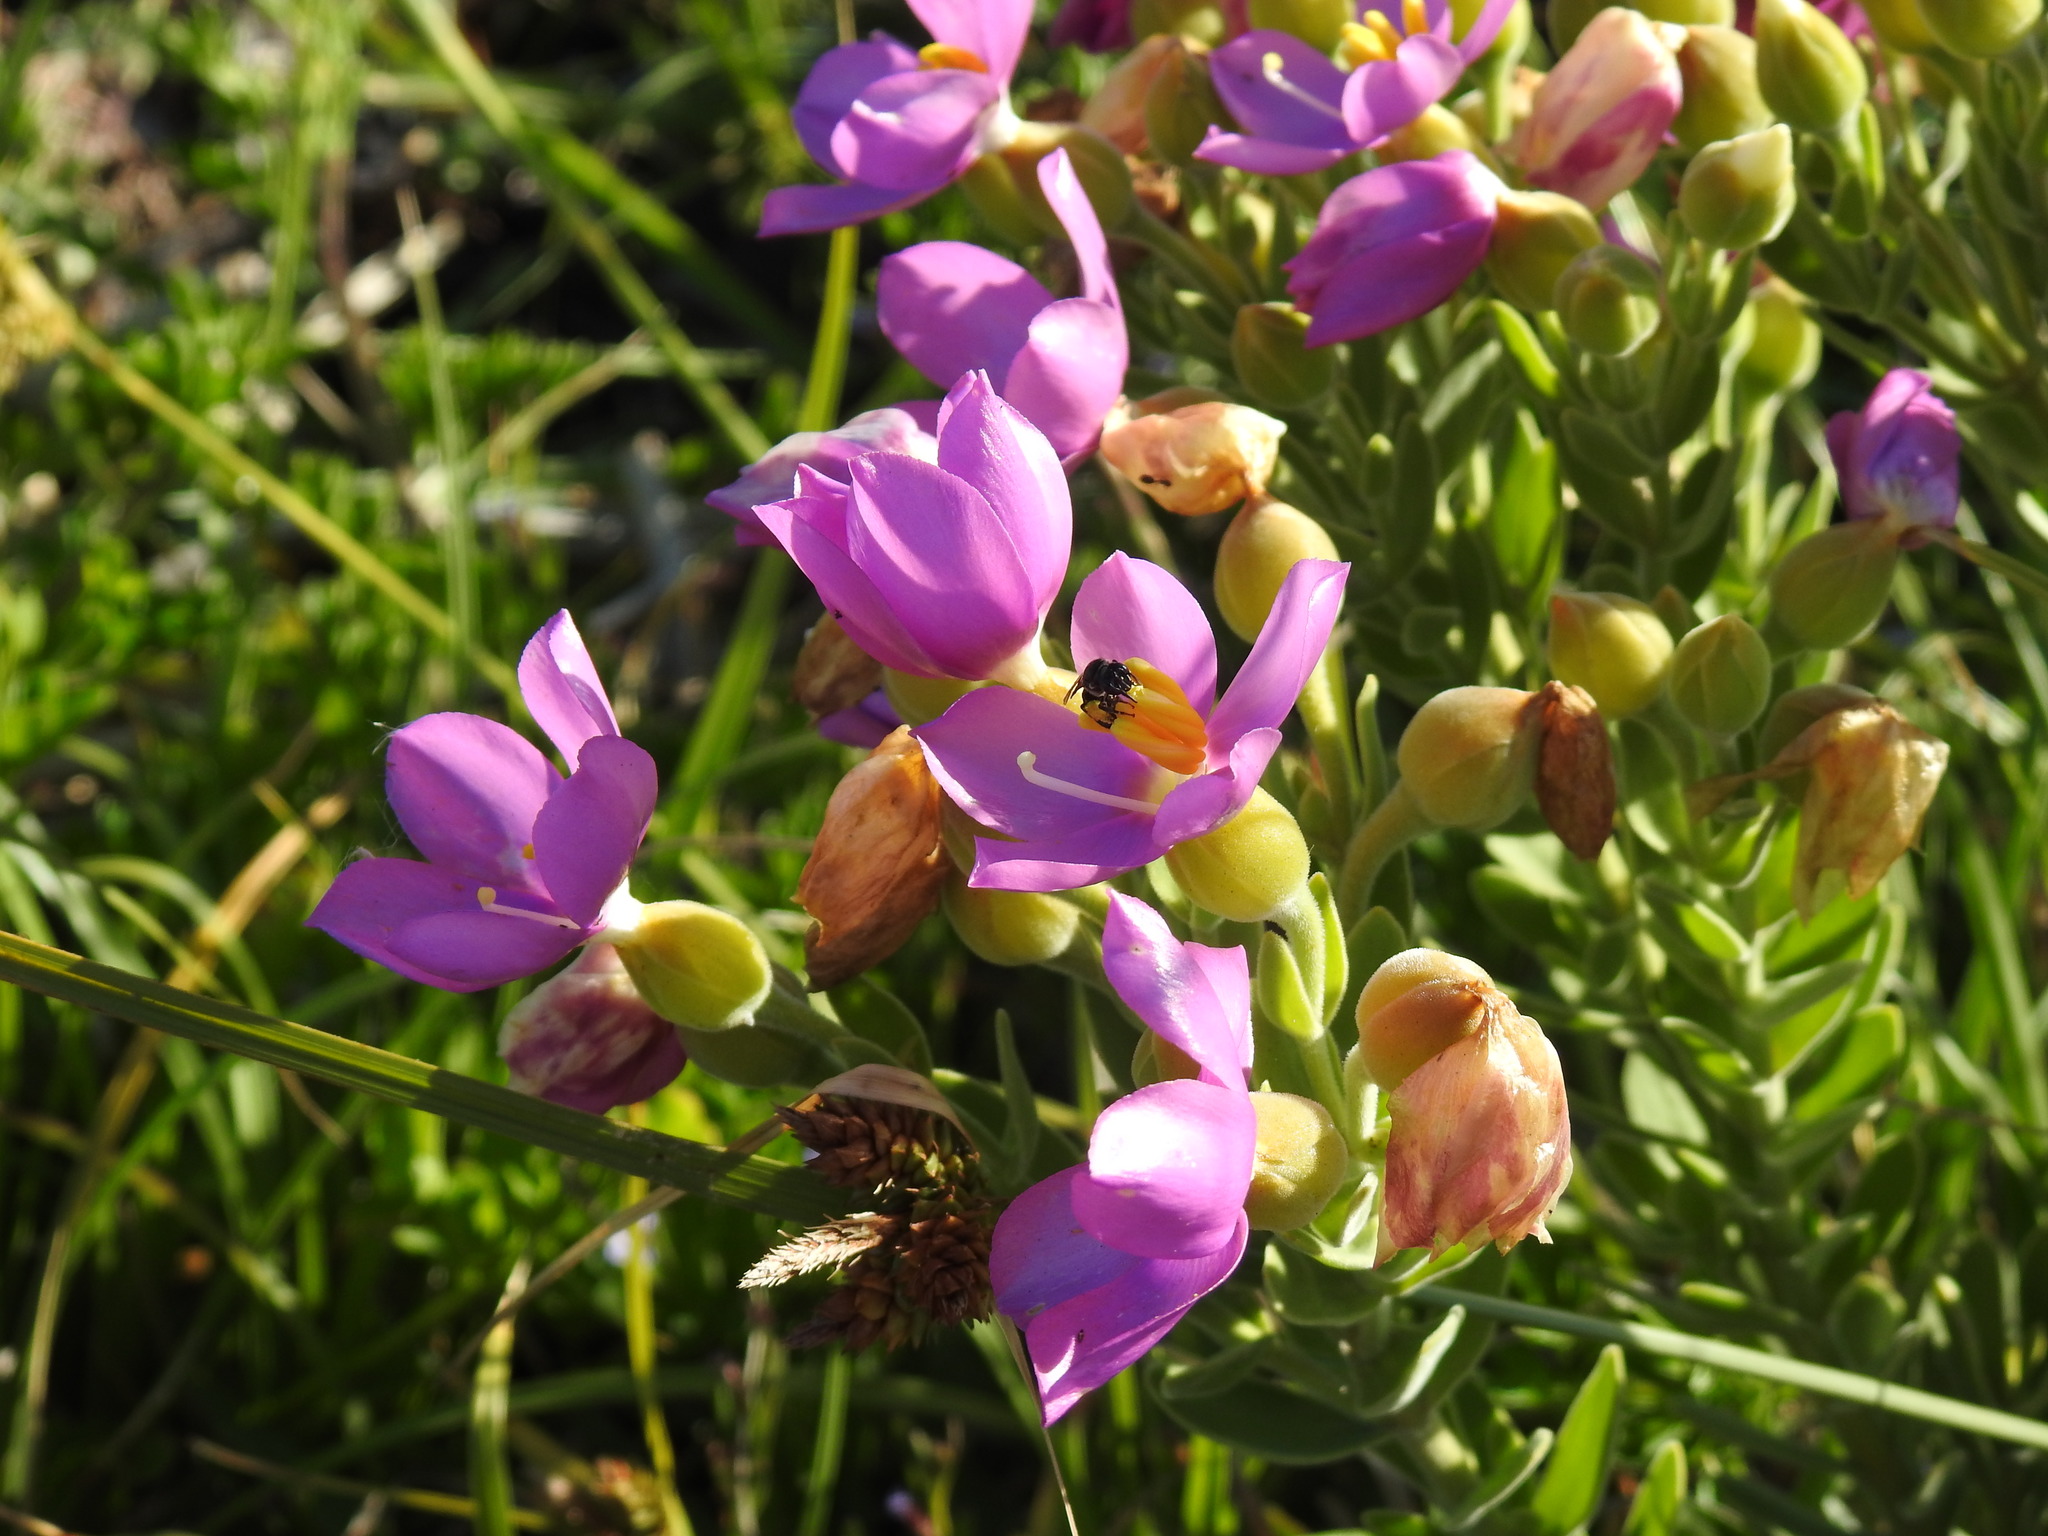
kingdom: Plantae
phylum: Tracheophyta
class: Magnoliopsida
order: Gentianales
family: Gentianaceae
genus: Orphium
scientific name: Orphium frutescens
